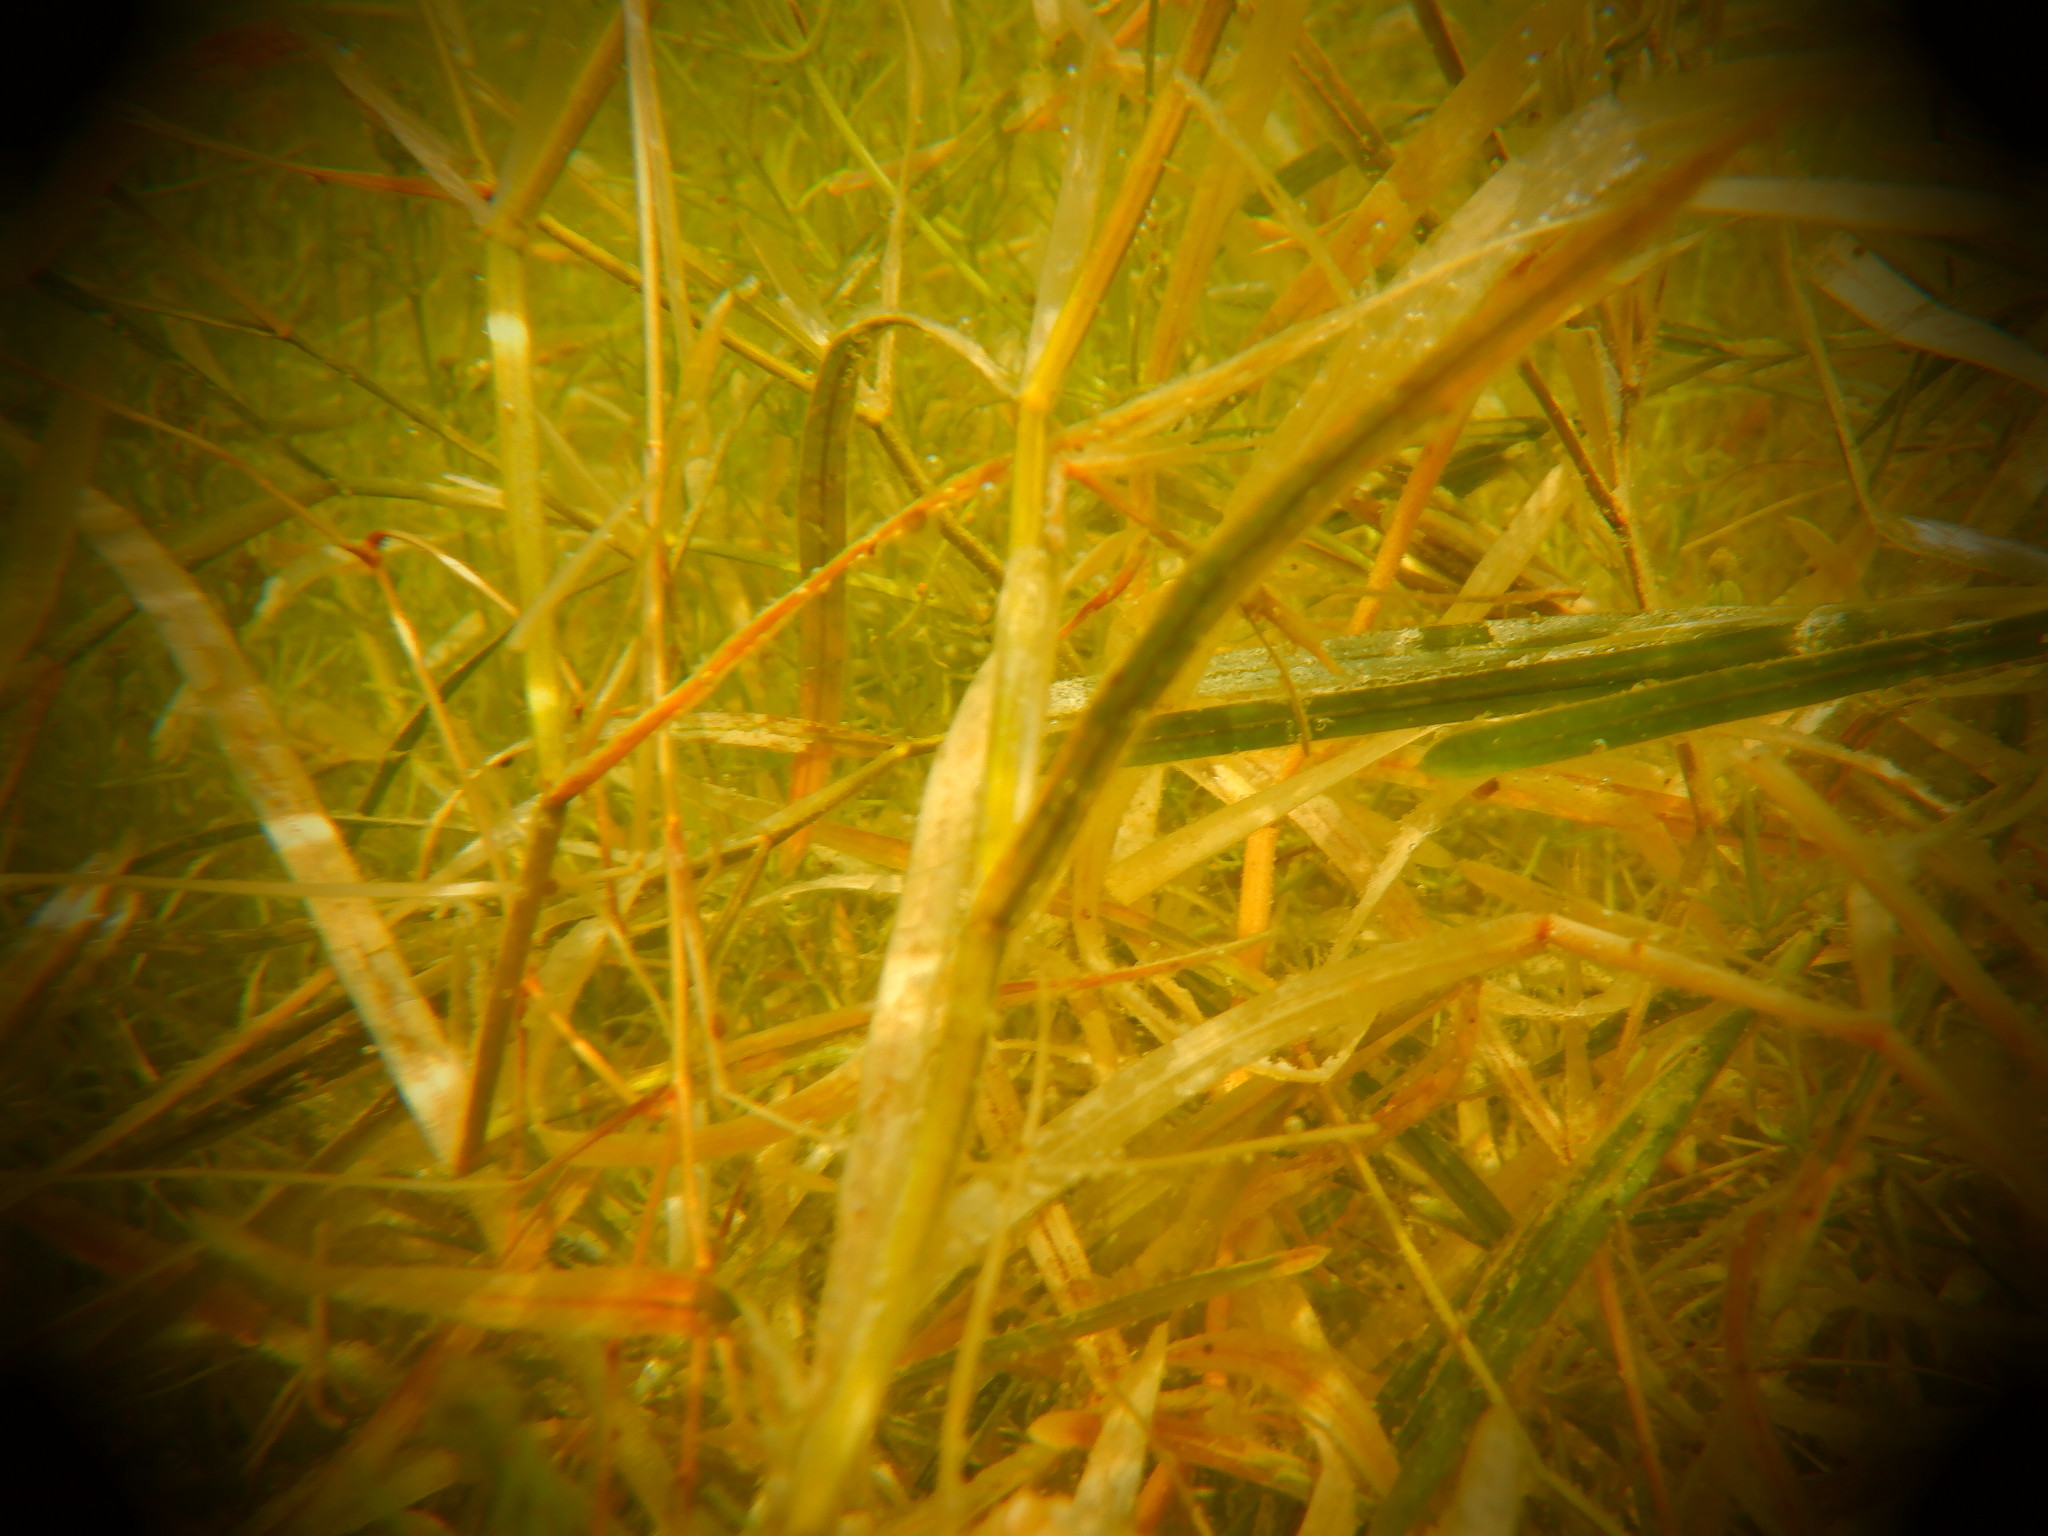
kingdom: Plantae
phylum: Tracheophyta
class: Liliopsida
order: Alismatales
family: Potamogetonaceae
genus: Potamogeton
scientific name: Potamogeton zosteriformis
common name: Eelgrass pondweed
